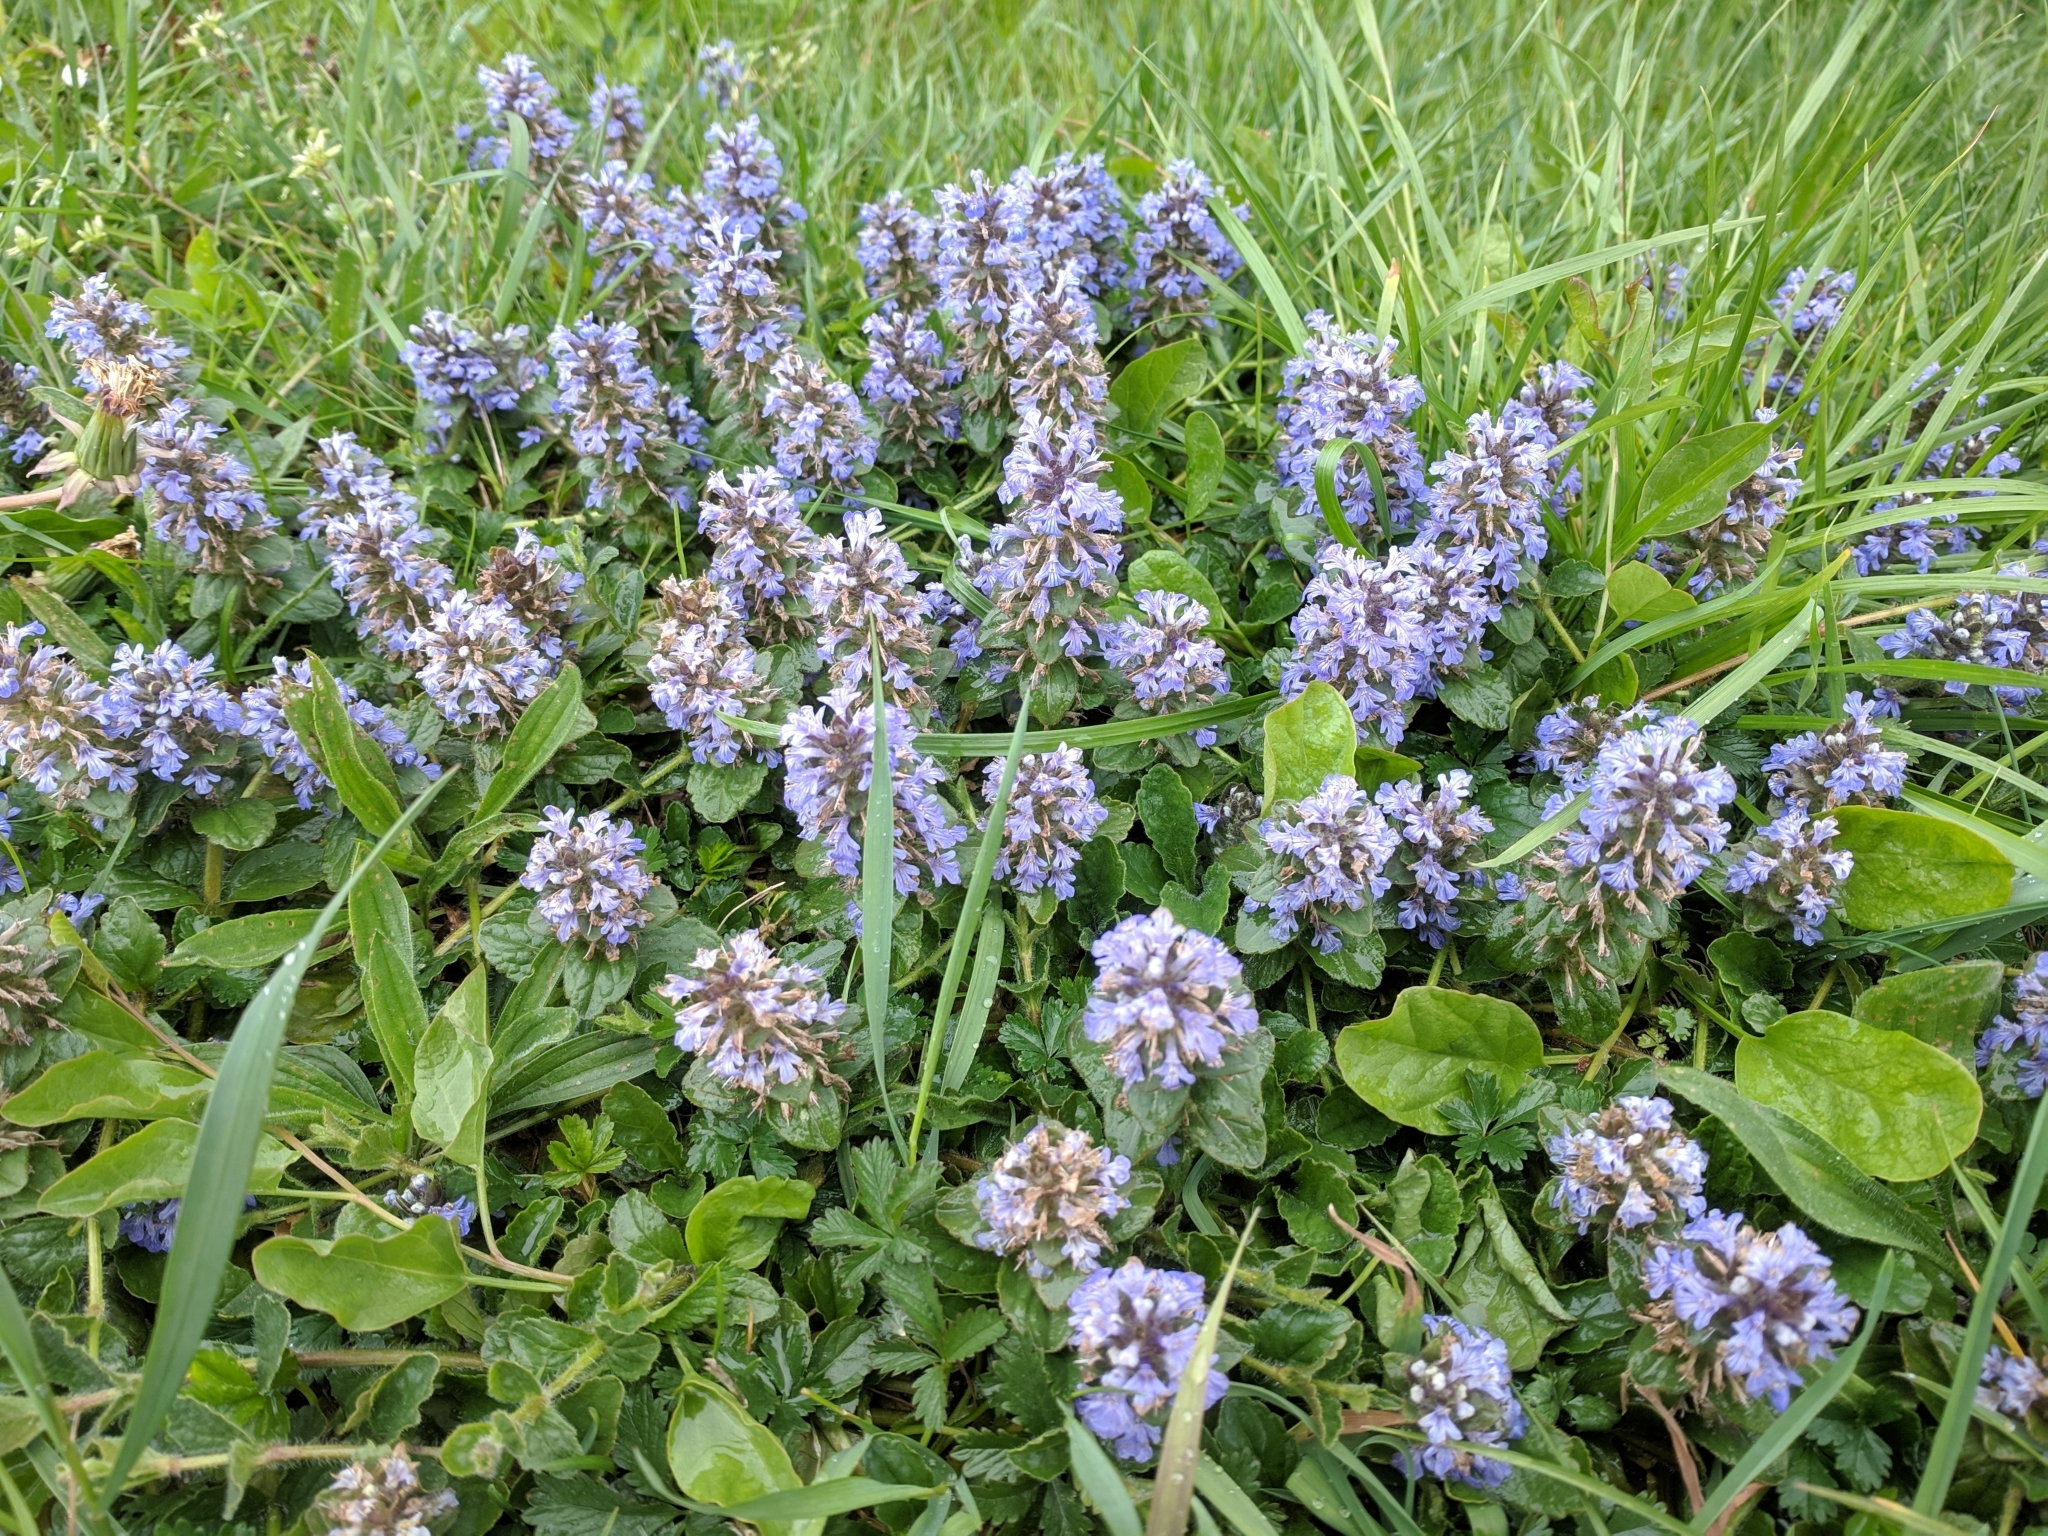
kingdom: Plantae
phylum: Tracheophyta
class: Magnoliopsida
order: Lamiales
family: Lamiaceae
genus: Ajuga
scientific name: Ajuga reptans
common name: Bugle
